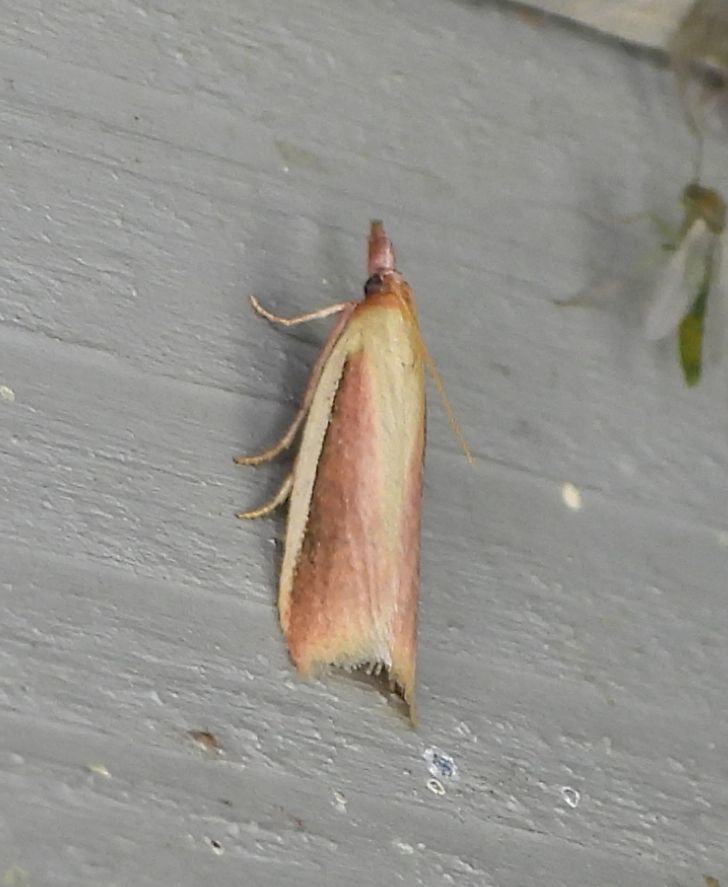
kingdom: Animalia
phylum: Arthropoda
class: Insecta
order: Lepidoptera
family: Pyralidae
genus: Peoria
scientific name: Peoria approximella
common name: Carmine snout
